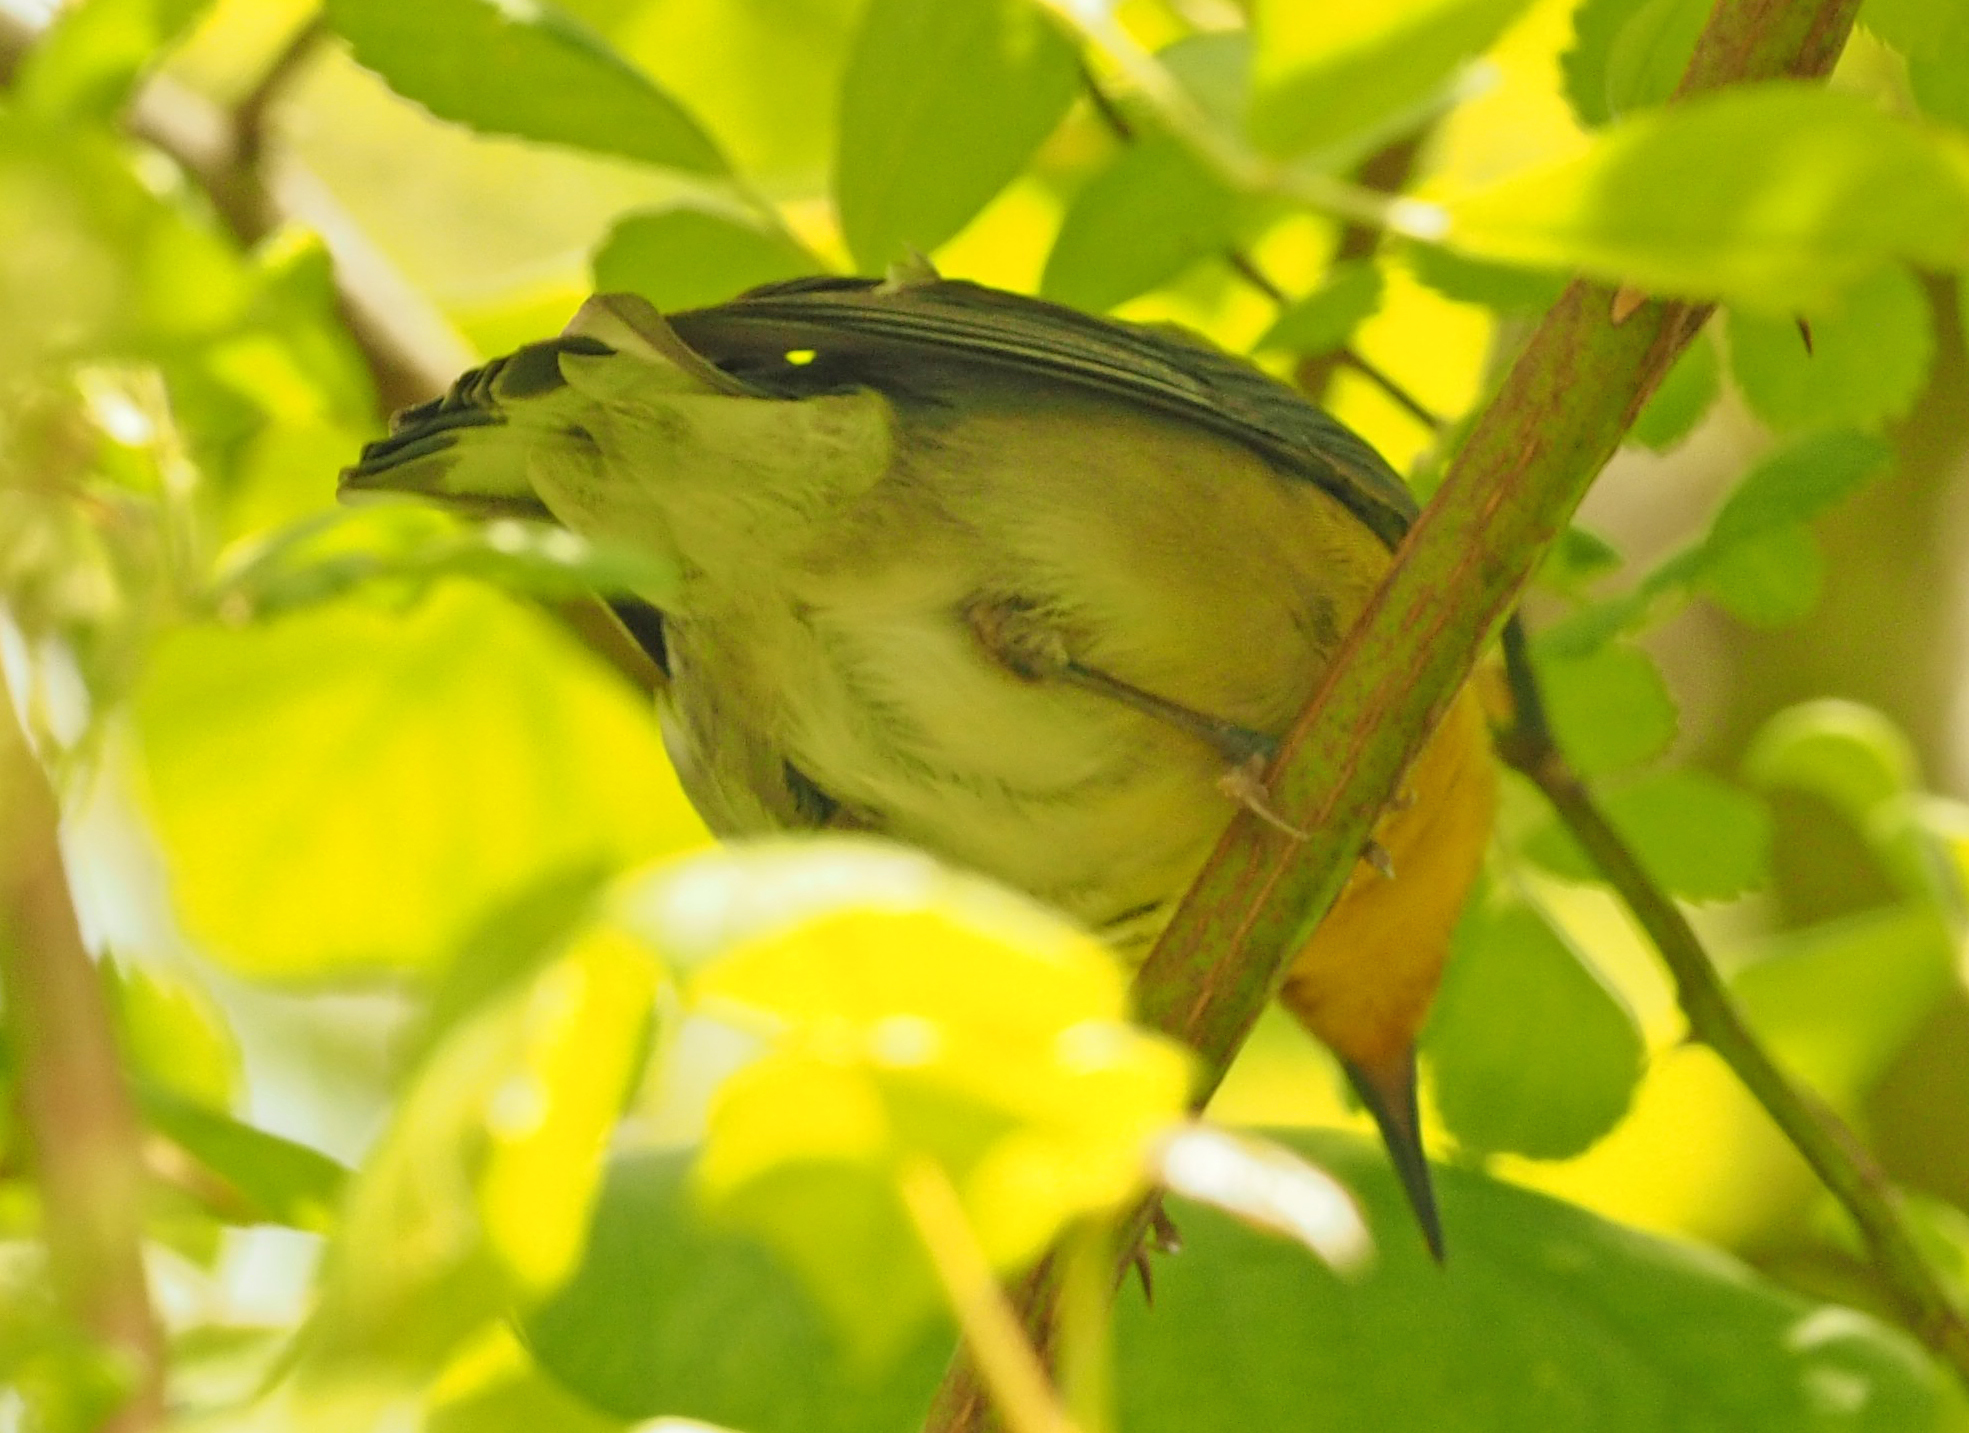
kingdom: Animalia
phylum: Chordata
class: Aves
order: Passeriformes
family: Parulidae
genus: Protonotaria
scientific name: Protonotaria citrea
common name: Prothonotary warbler
